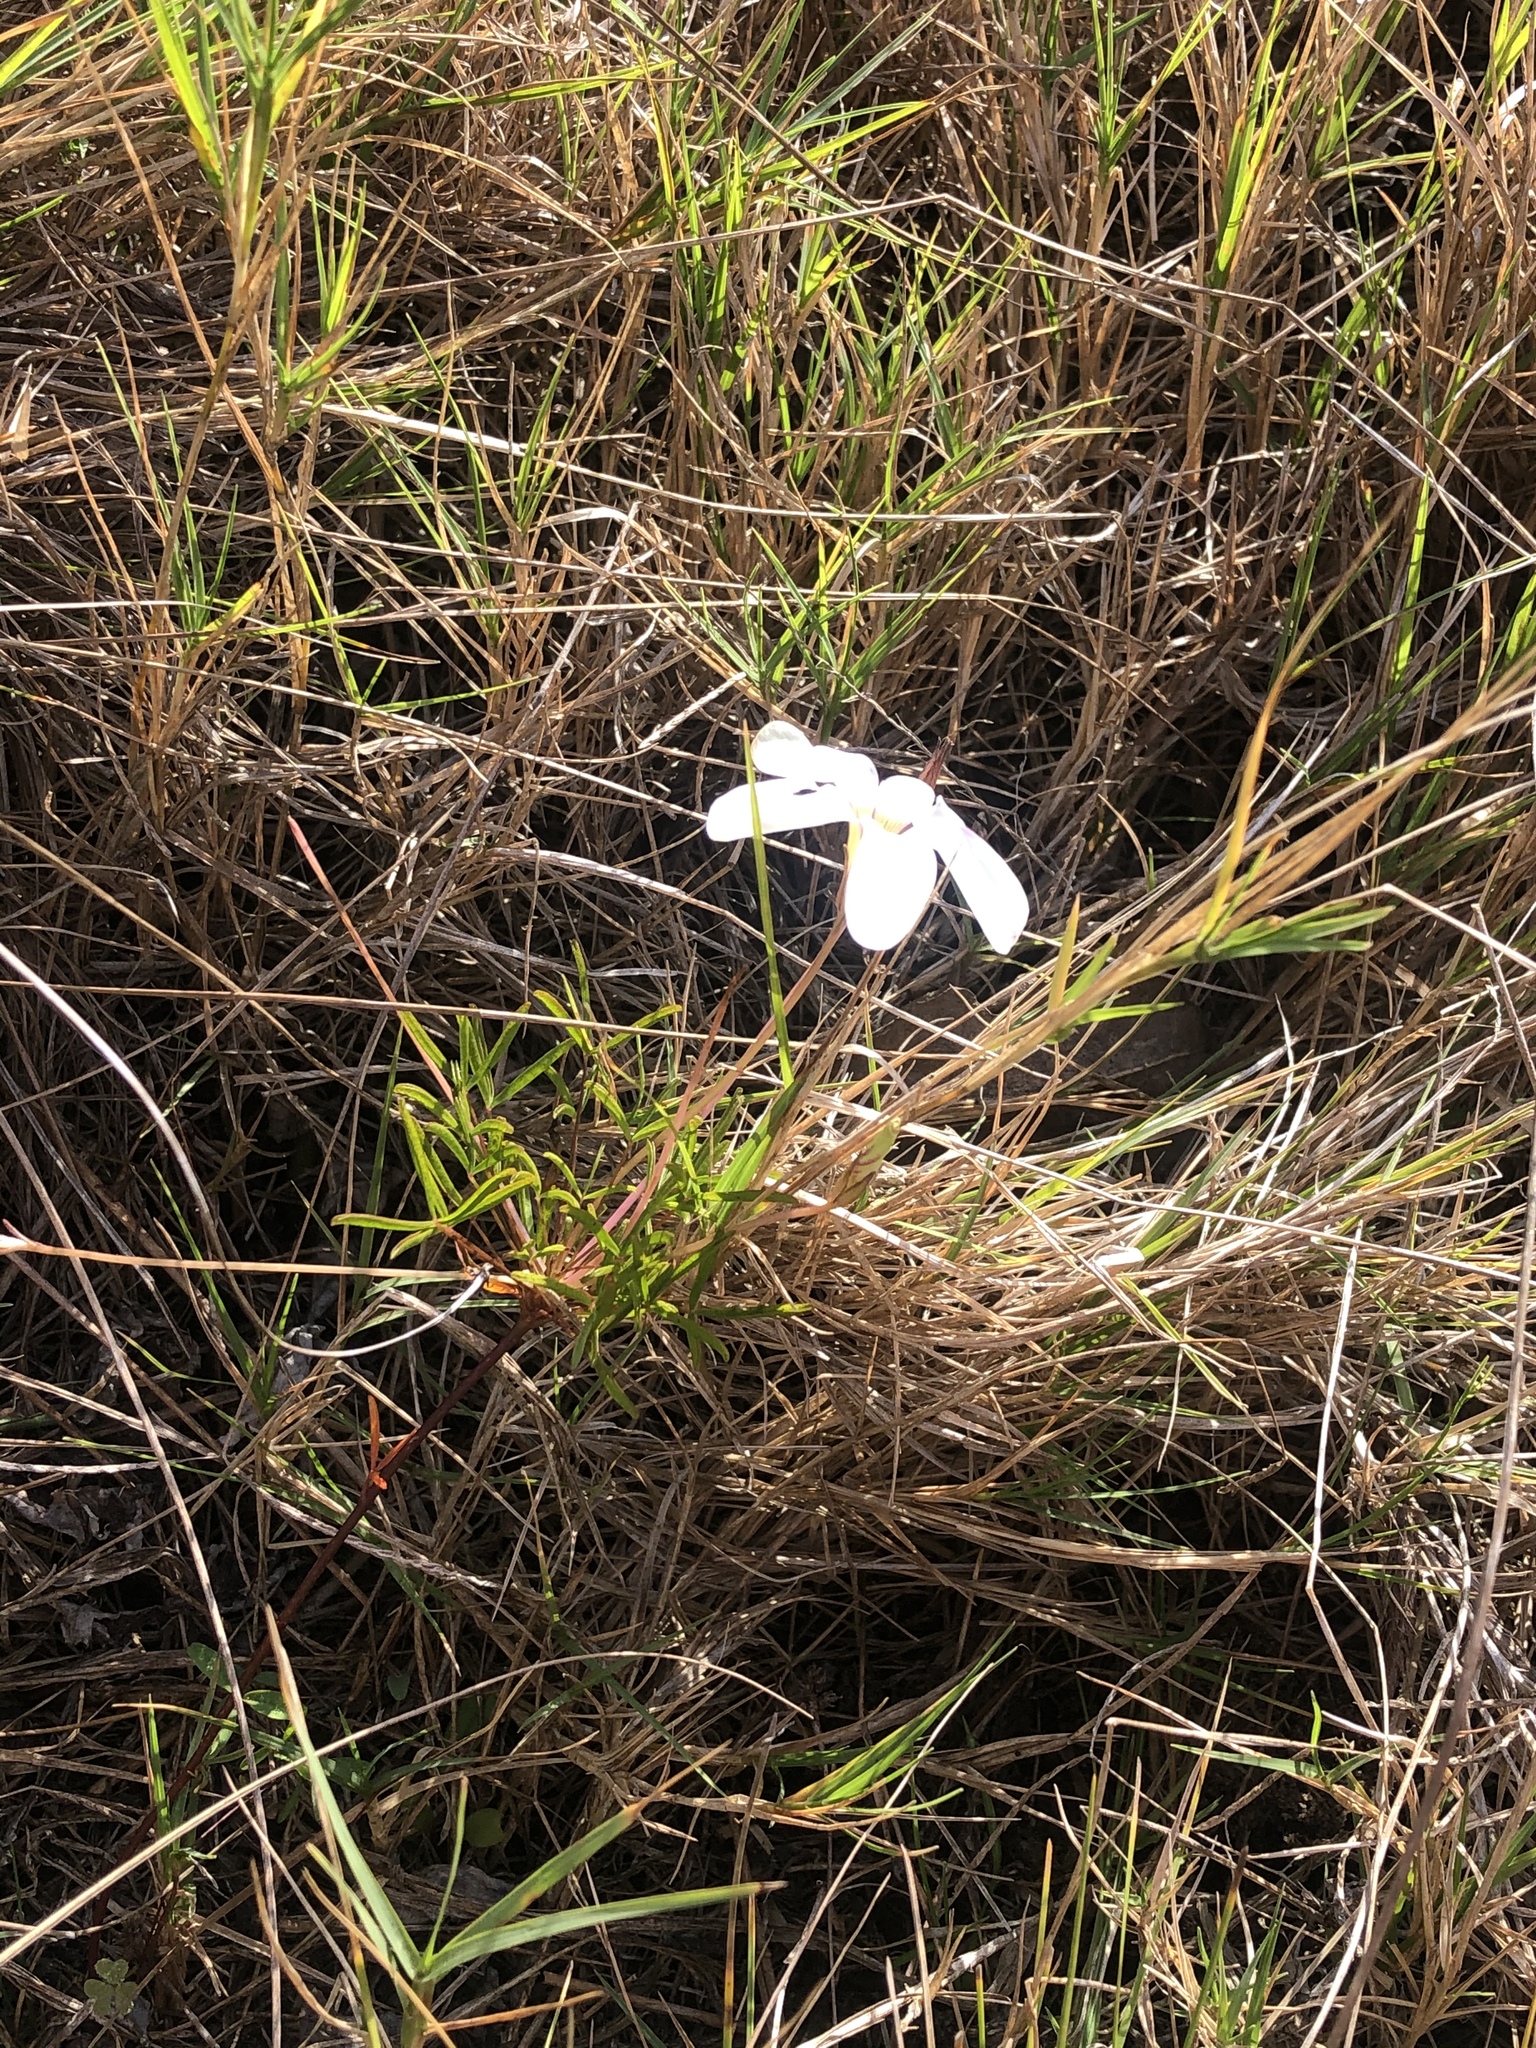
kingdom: Plantae
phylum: Tracheophyta
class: Magnoliopsida
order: Oxalidales
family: Oxalidaceae
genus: Oxalis
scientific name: Oxalis ciliaris
